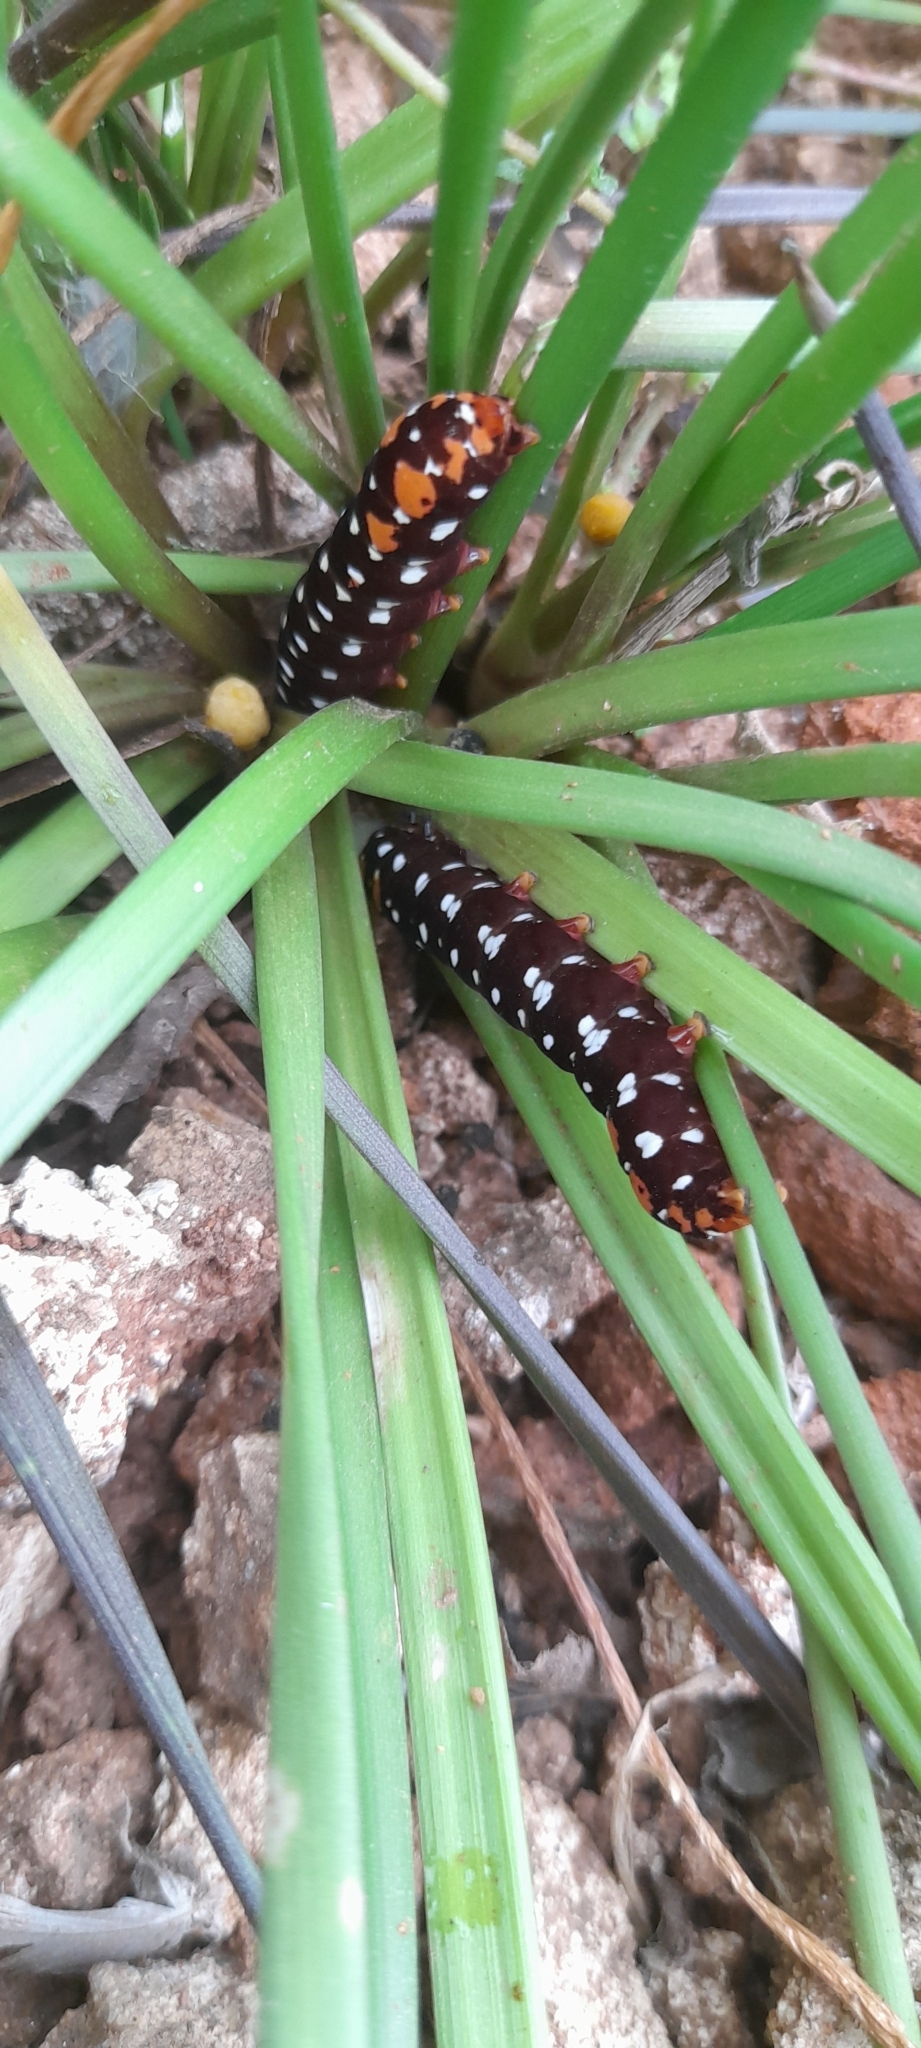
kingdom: Animalia
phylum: Arthropoda
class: Insecta
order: Lepidoptera
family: Noctuidae
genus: Polytela
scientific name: Polytela gloriosae
